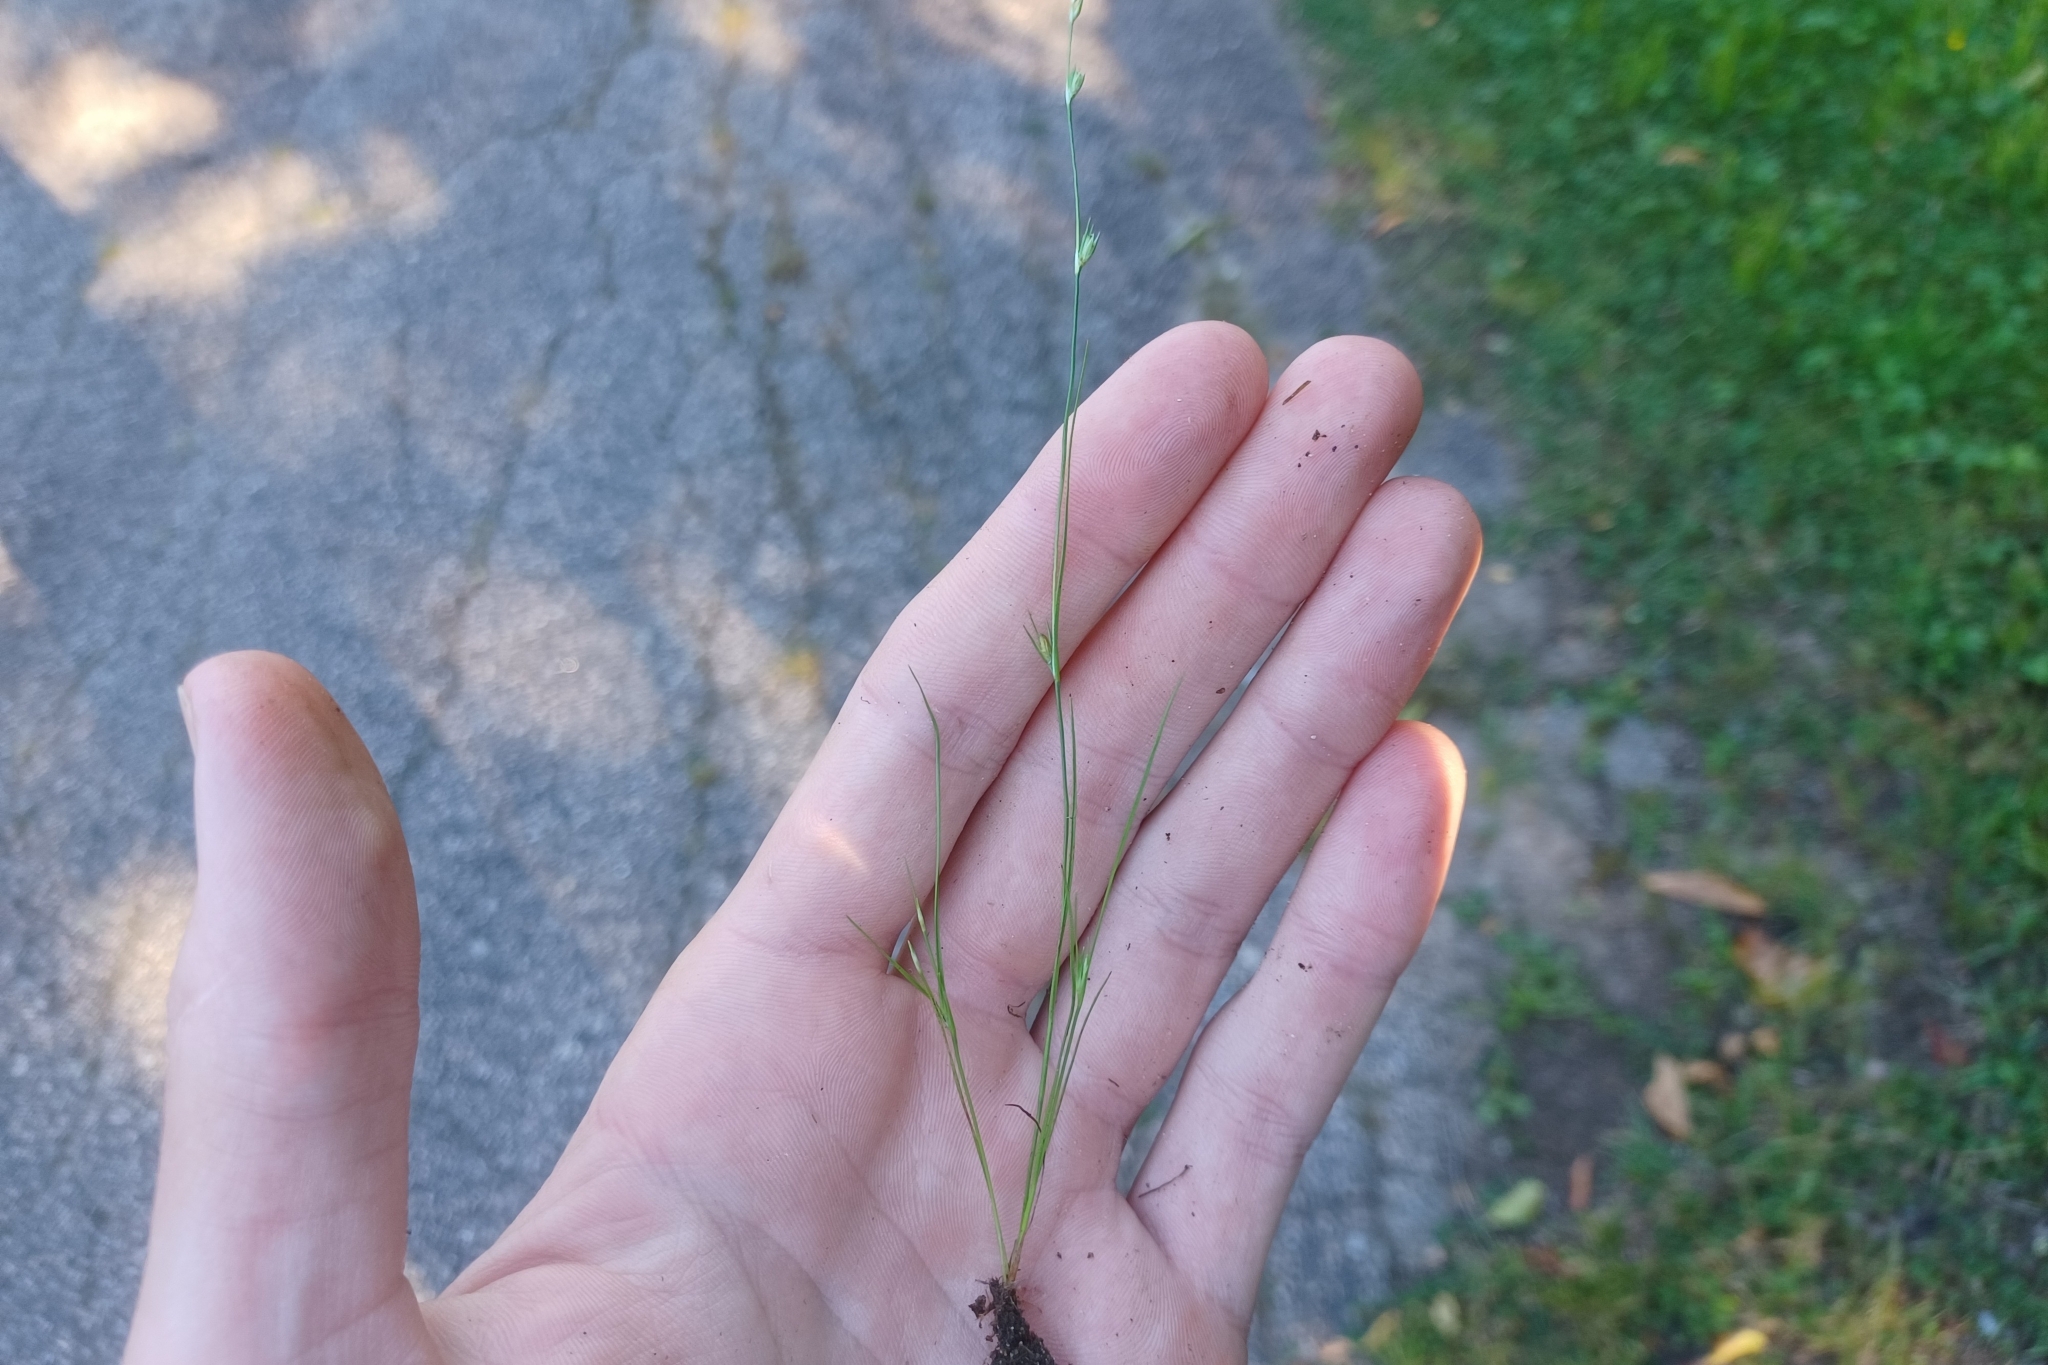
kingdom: Plantae
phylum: Tracheophyta
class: Liliopsida
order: Poales
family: Juncaceae
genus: Juncus
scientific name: Juncus bufonius
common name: Toad rush
